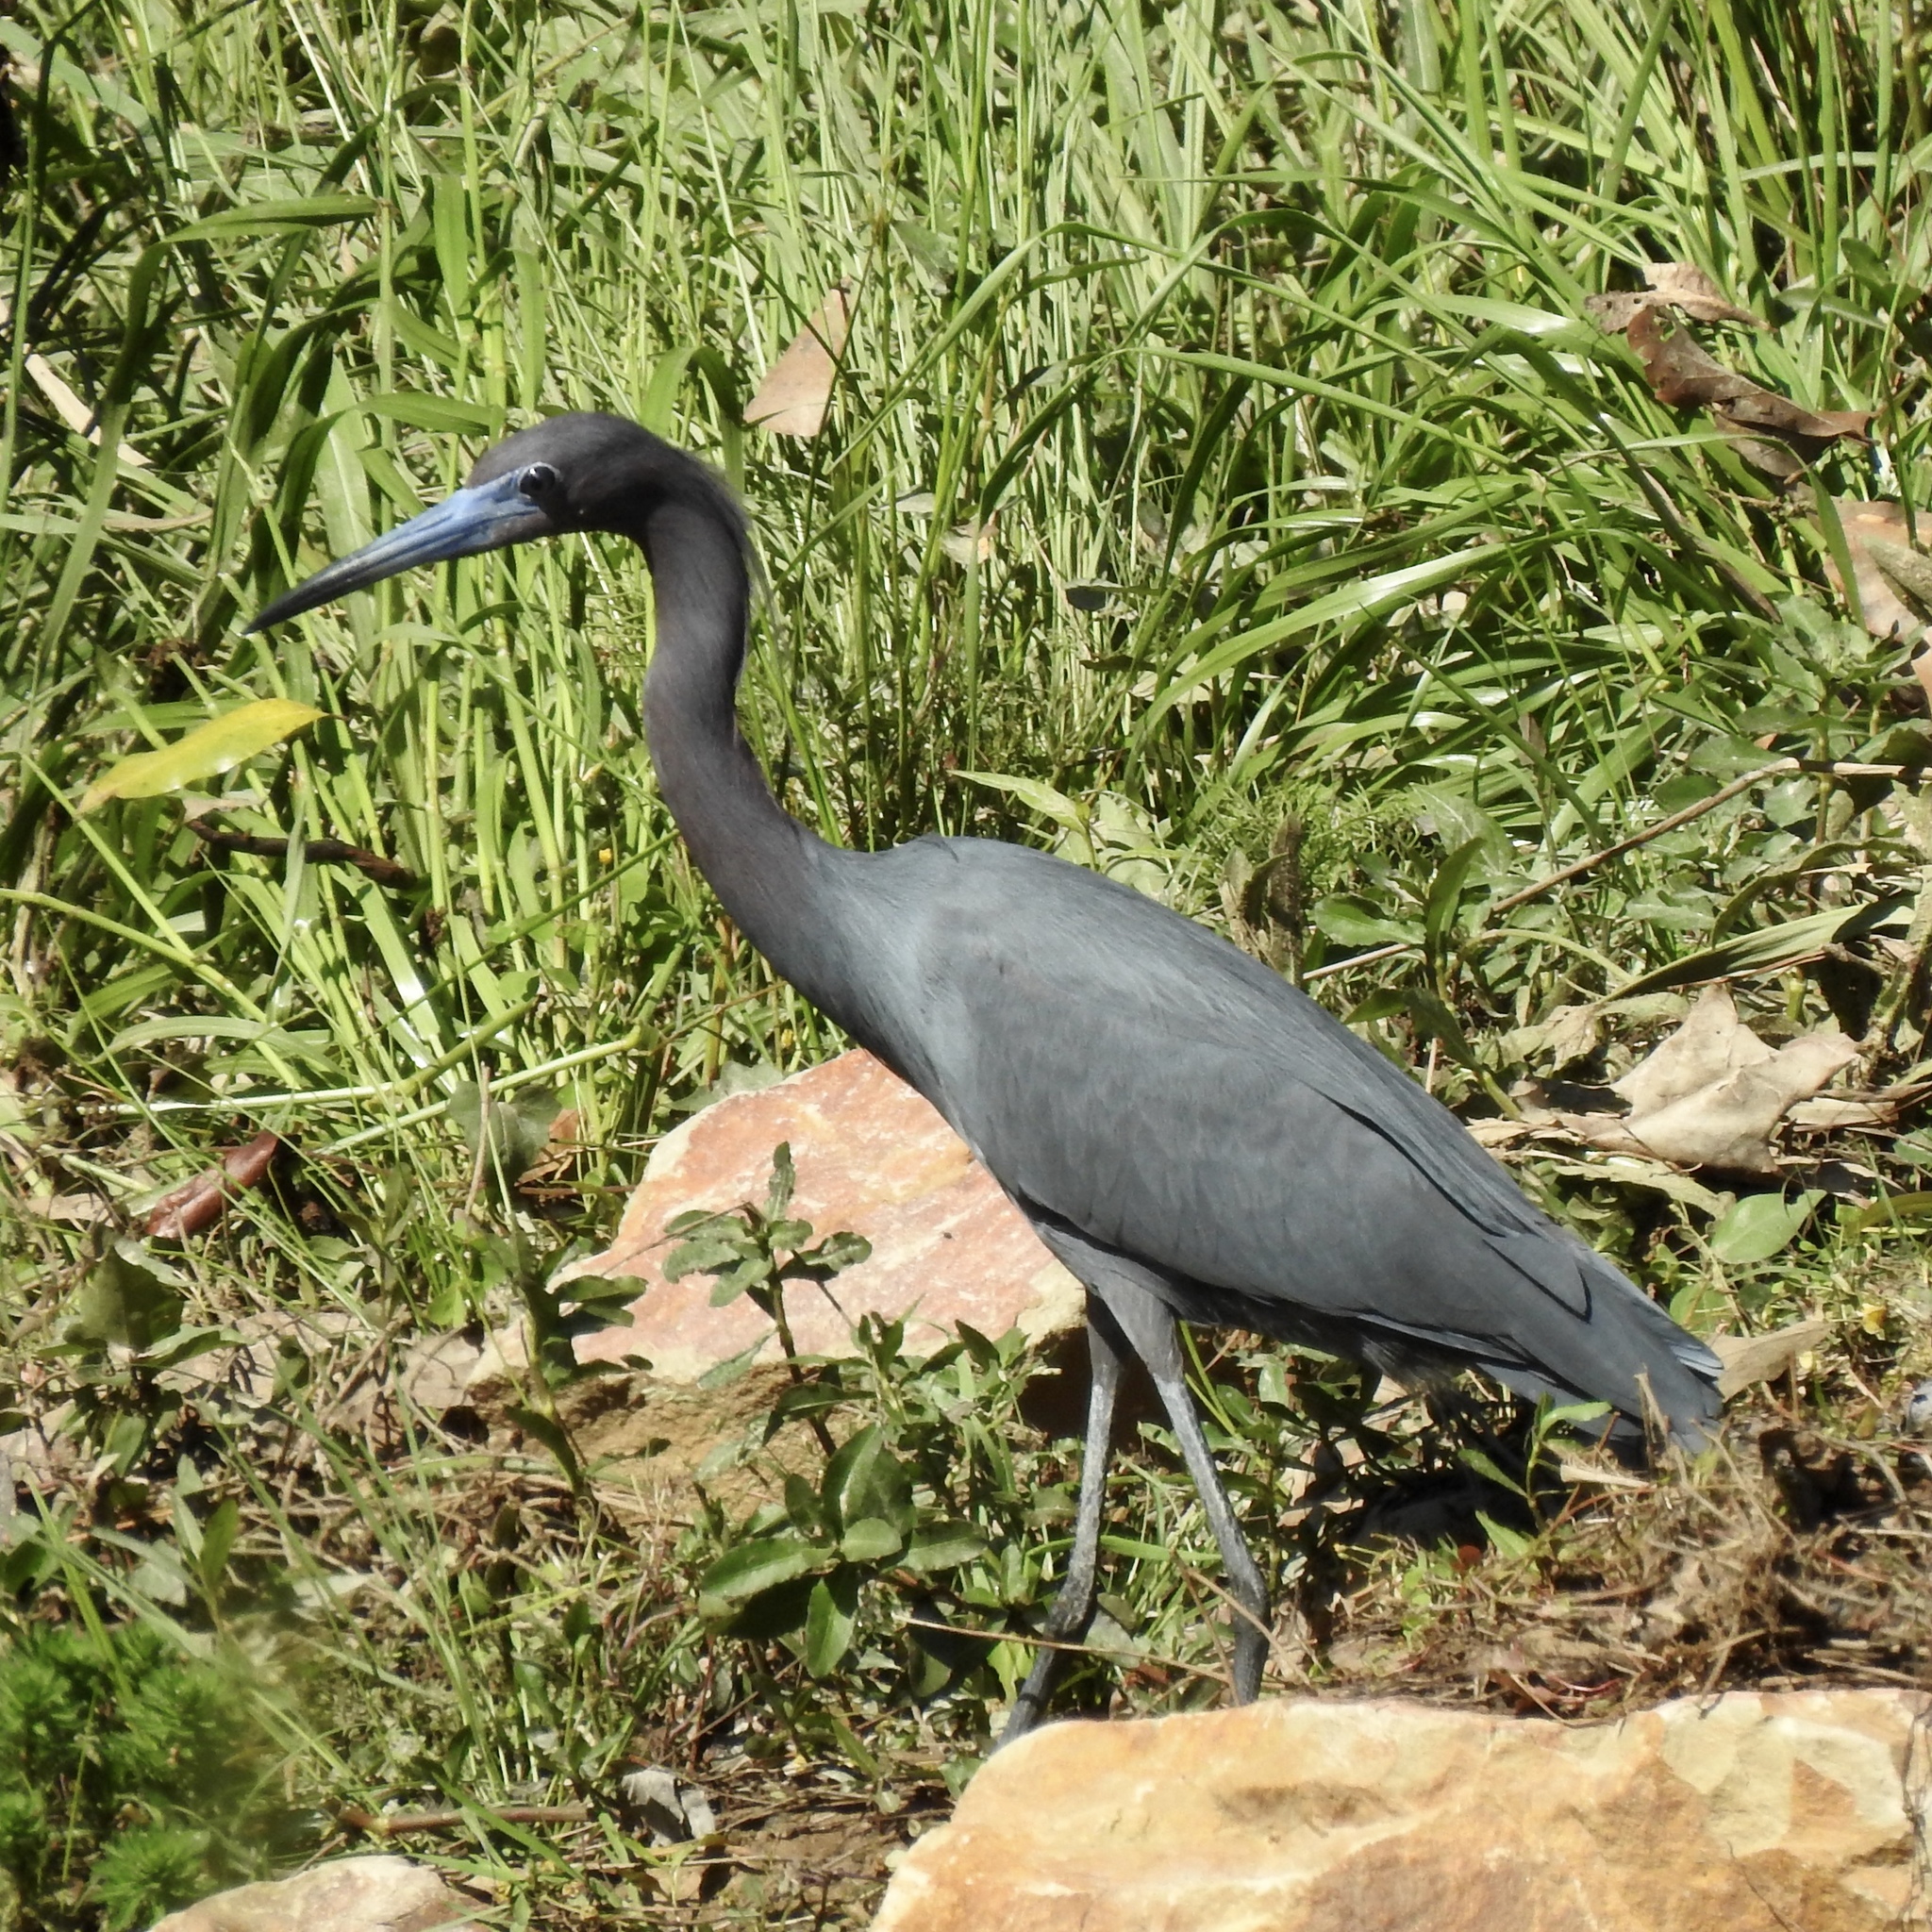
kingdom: Animalia
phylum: Chordata
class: Aves
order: Pelecaniformes
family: Ardeidae
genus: Egretta
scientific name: Egretta caerulea
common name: Little blue heron
